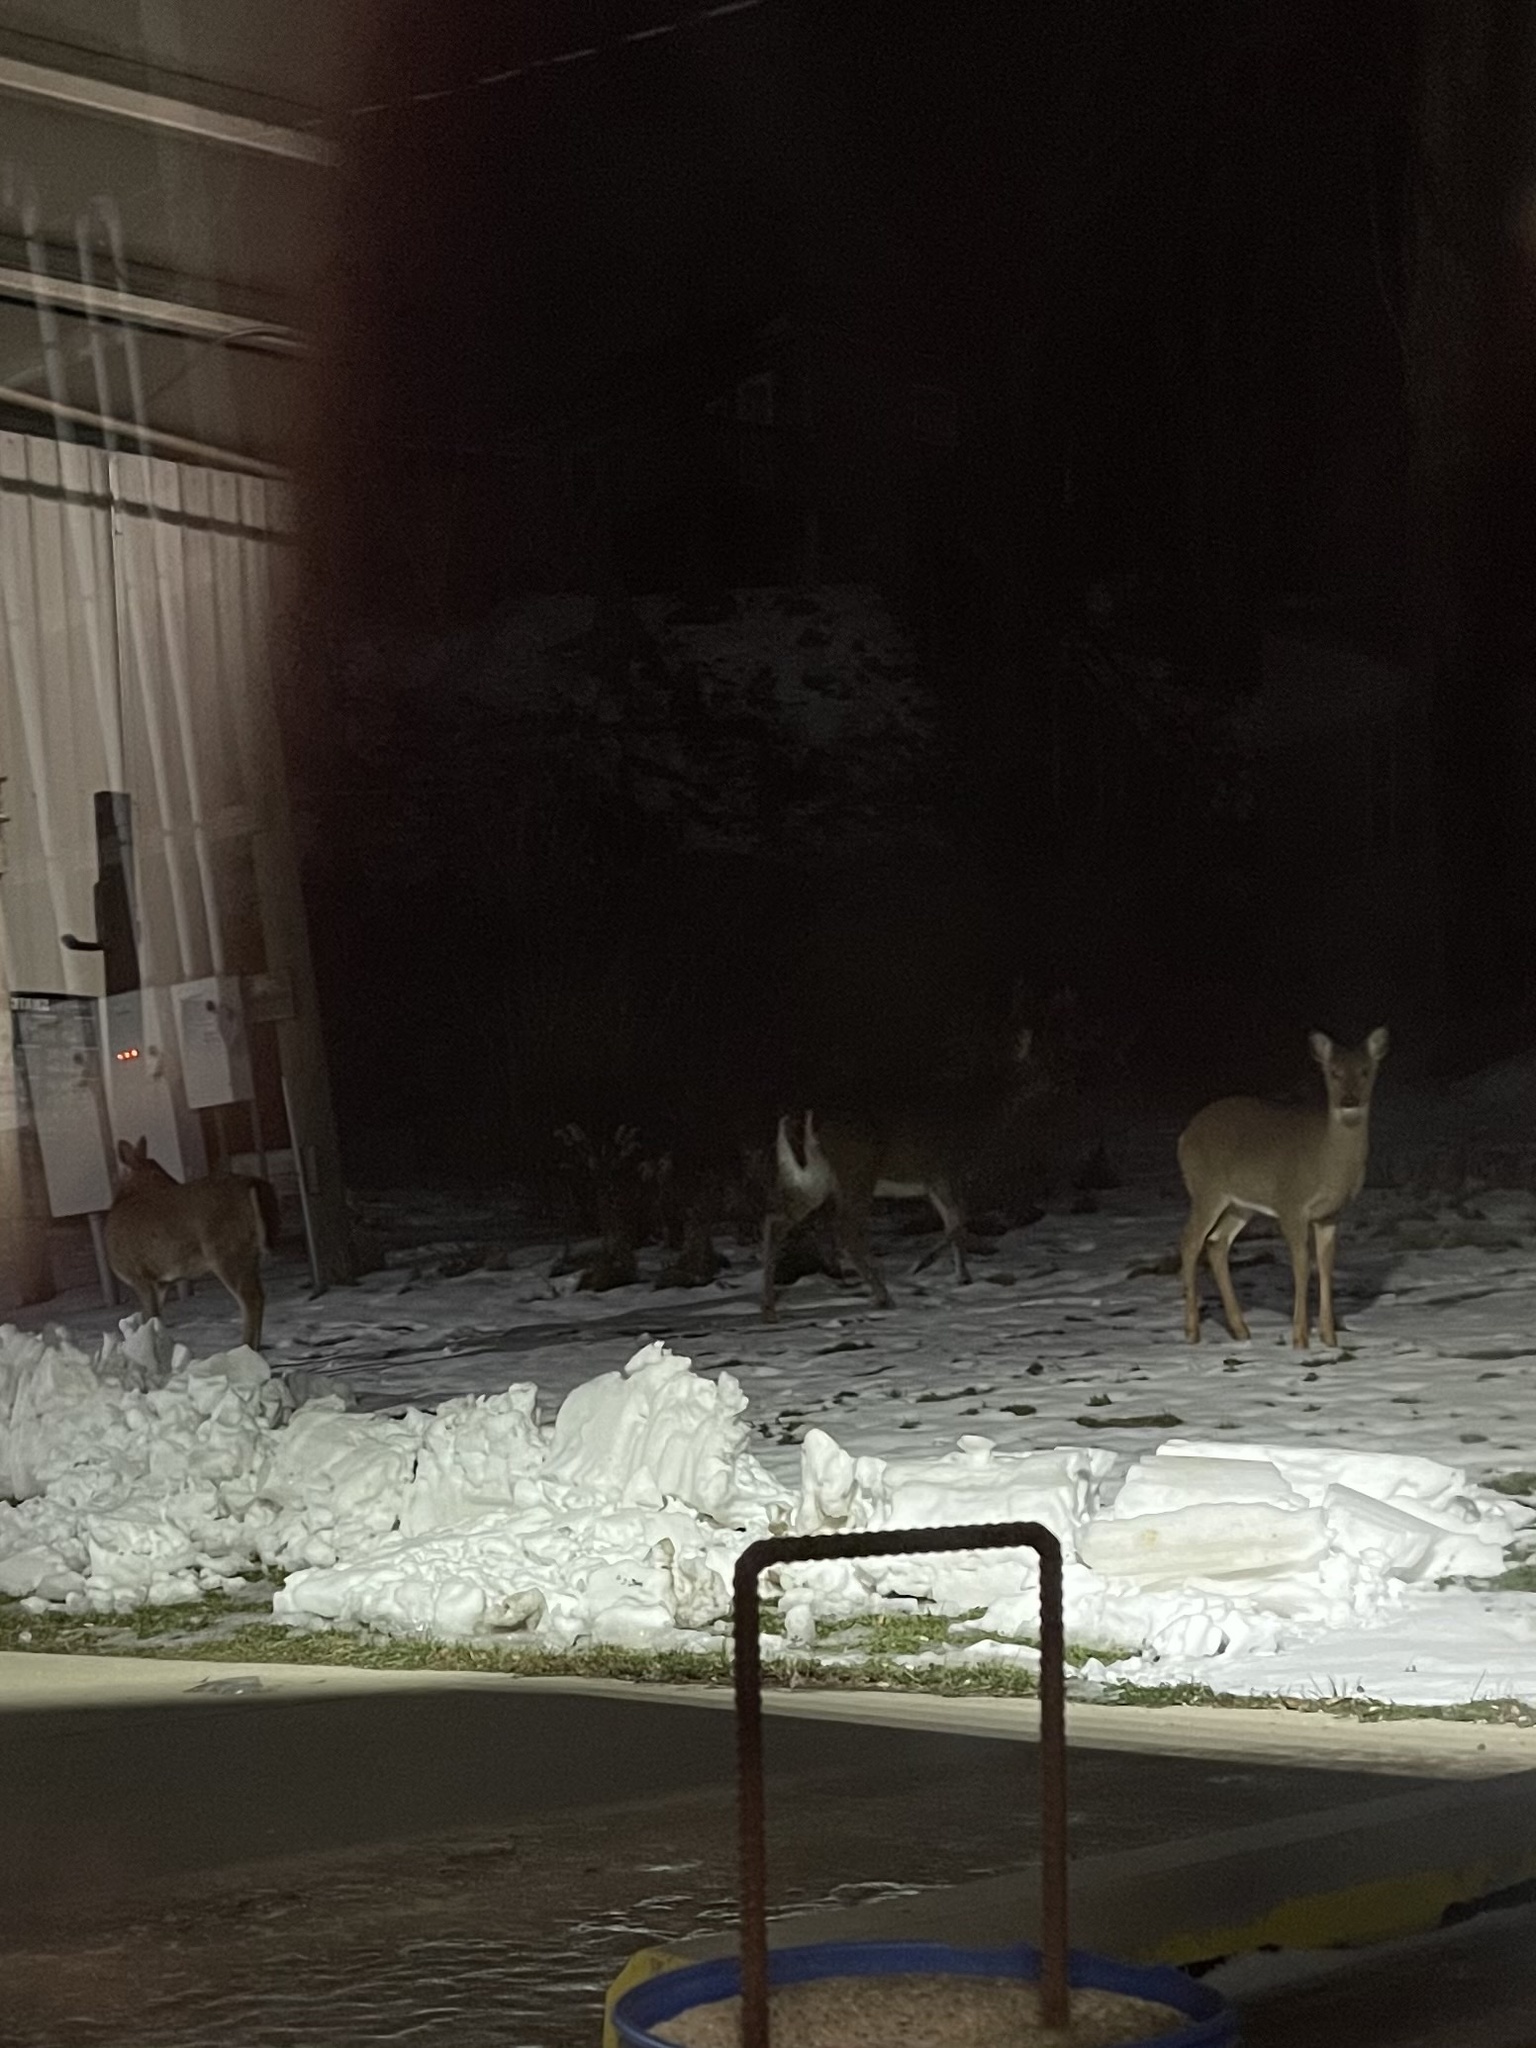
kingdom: Animalia
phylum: Chordata
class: Mammalia
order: Artiodactyla
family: Cervidae
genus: Odocoileus
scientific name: Odocoileus virginianus
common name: White-tailed deer
